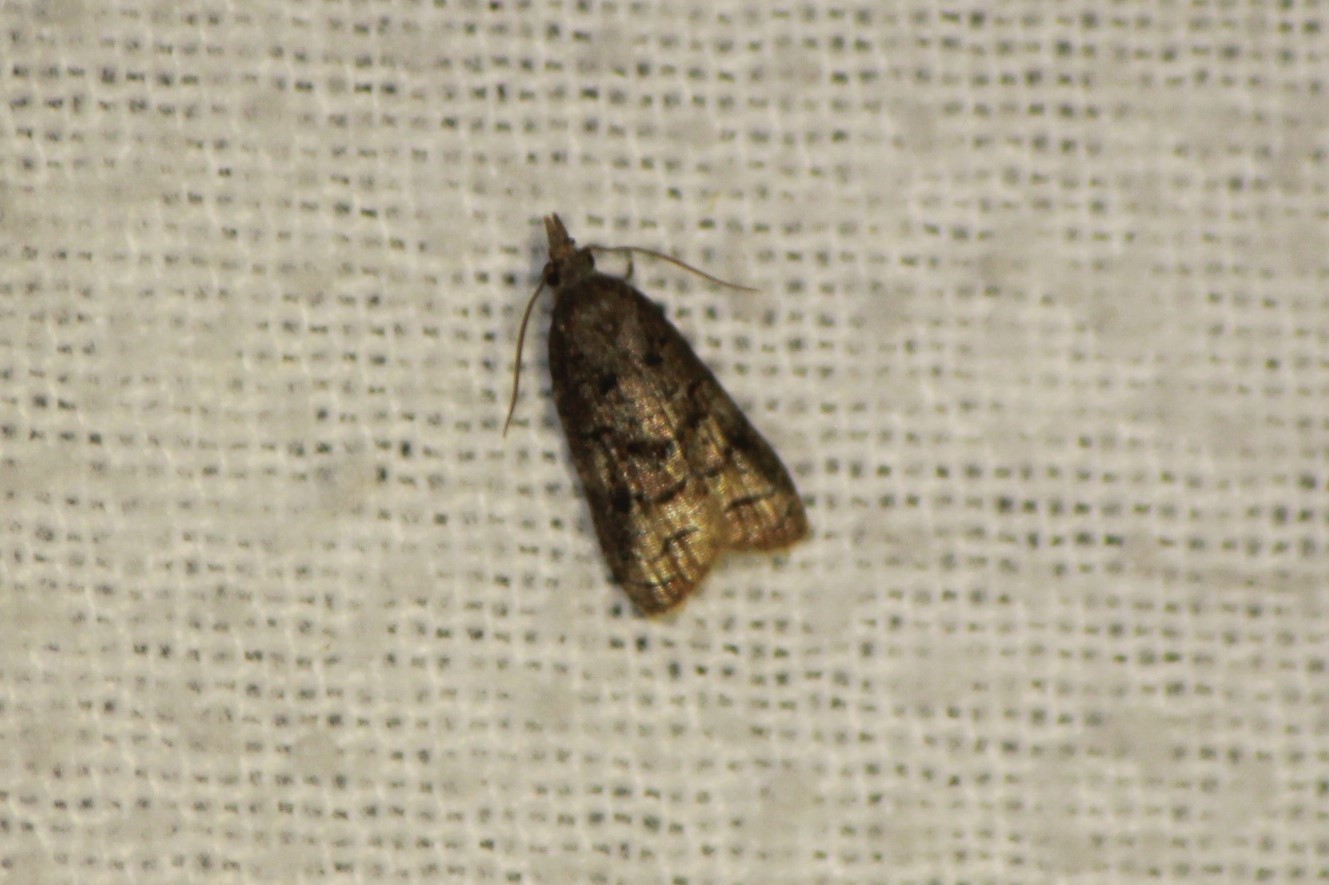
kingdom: Animalia
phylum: Arthropoda
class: Insecta
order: Lepidoptera
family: Tortricidae
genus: Platynota
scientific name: Platynota semiustana
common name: Singed platynota
